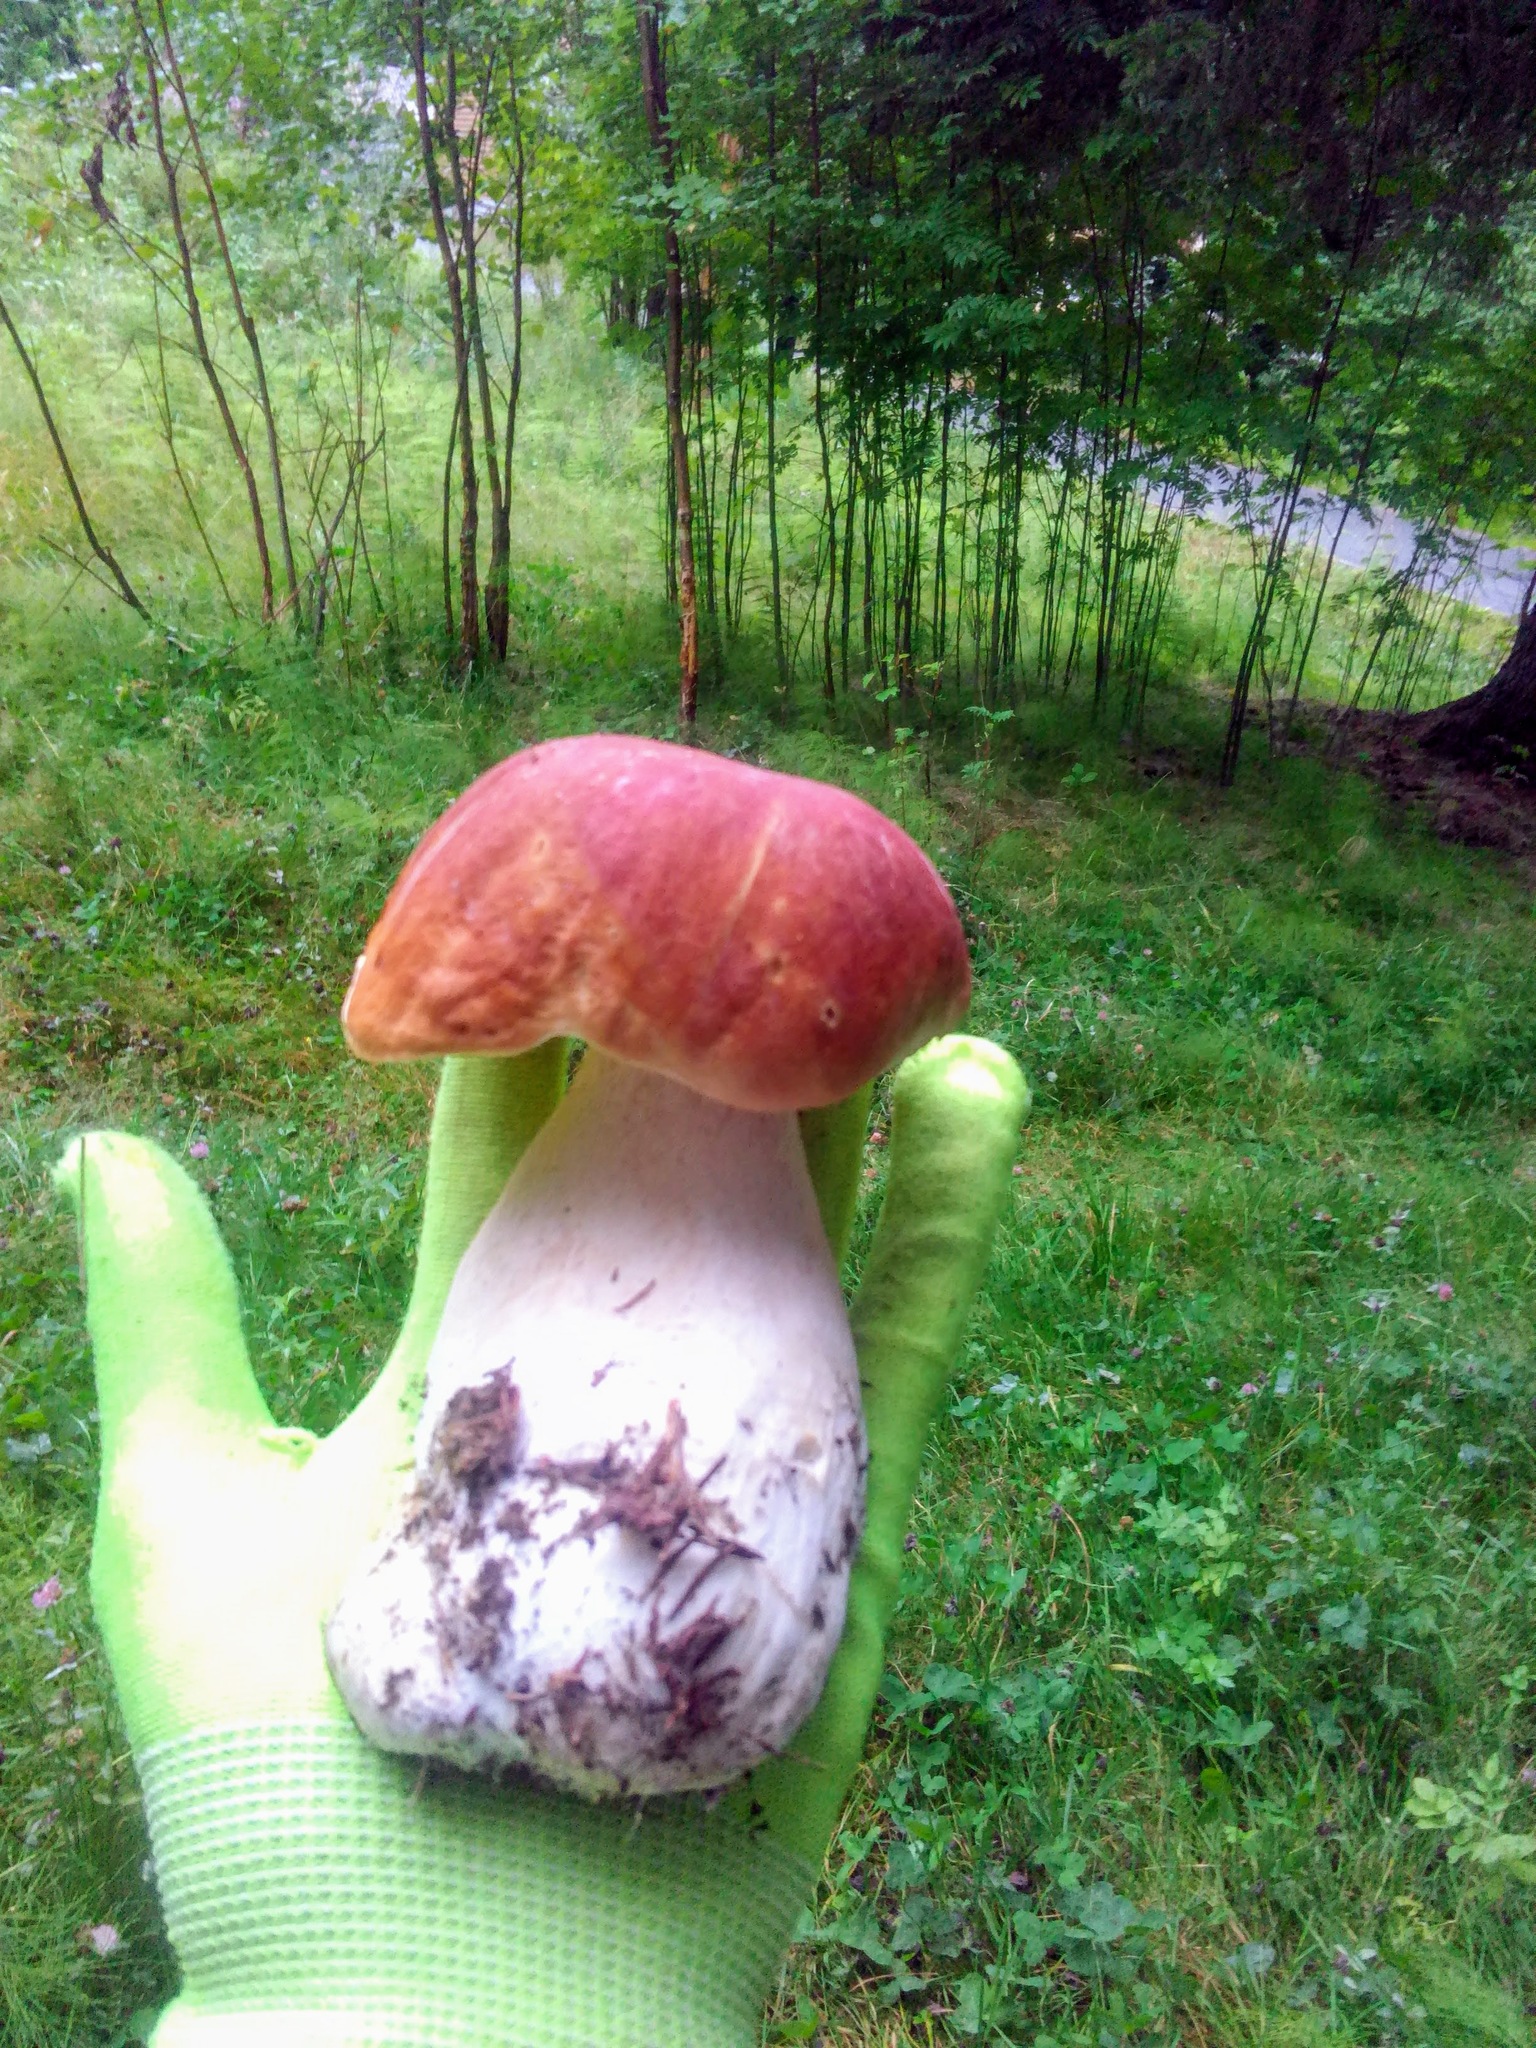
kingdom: Fungi
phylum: Basidiomycota
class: Agaricomycetes
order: Boletales
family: Boletaceae
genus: Boletus
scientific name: Boletus pinophilus
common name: Pine bolete
